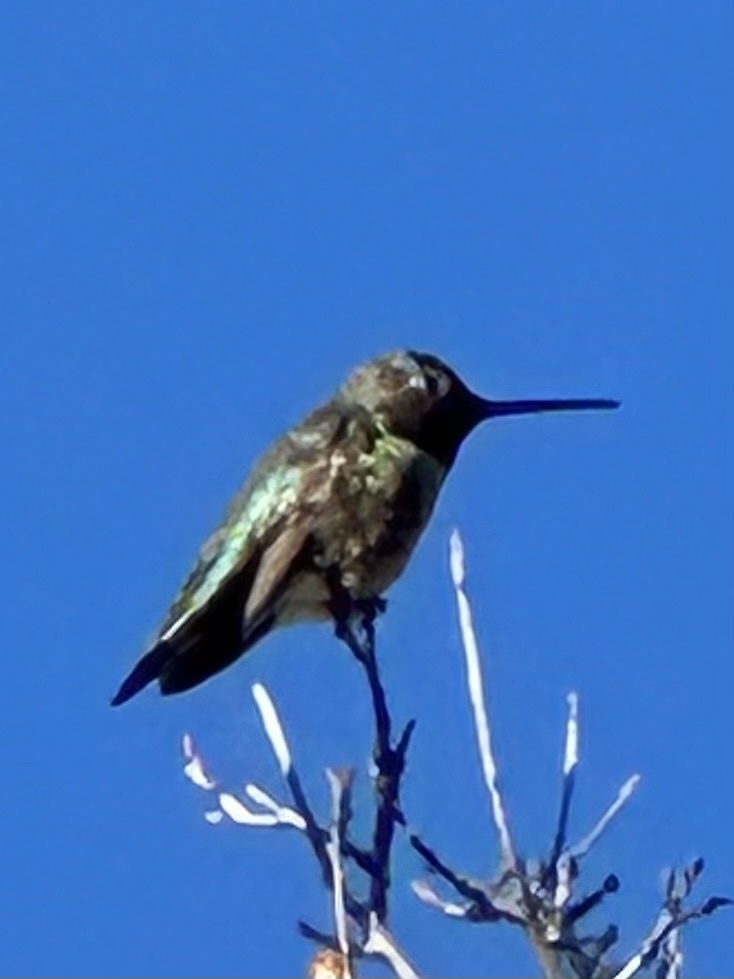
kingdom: Animalia
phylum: Chordata
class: Aves
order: Apodiformes
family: Trochilidae
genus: Calypte
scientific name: Calypte anna
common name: Anna's hummingbird
